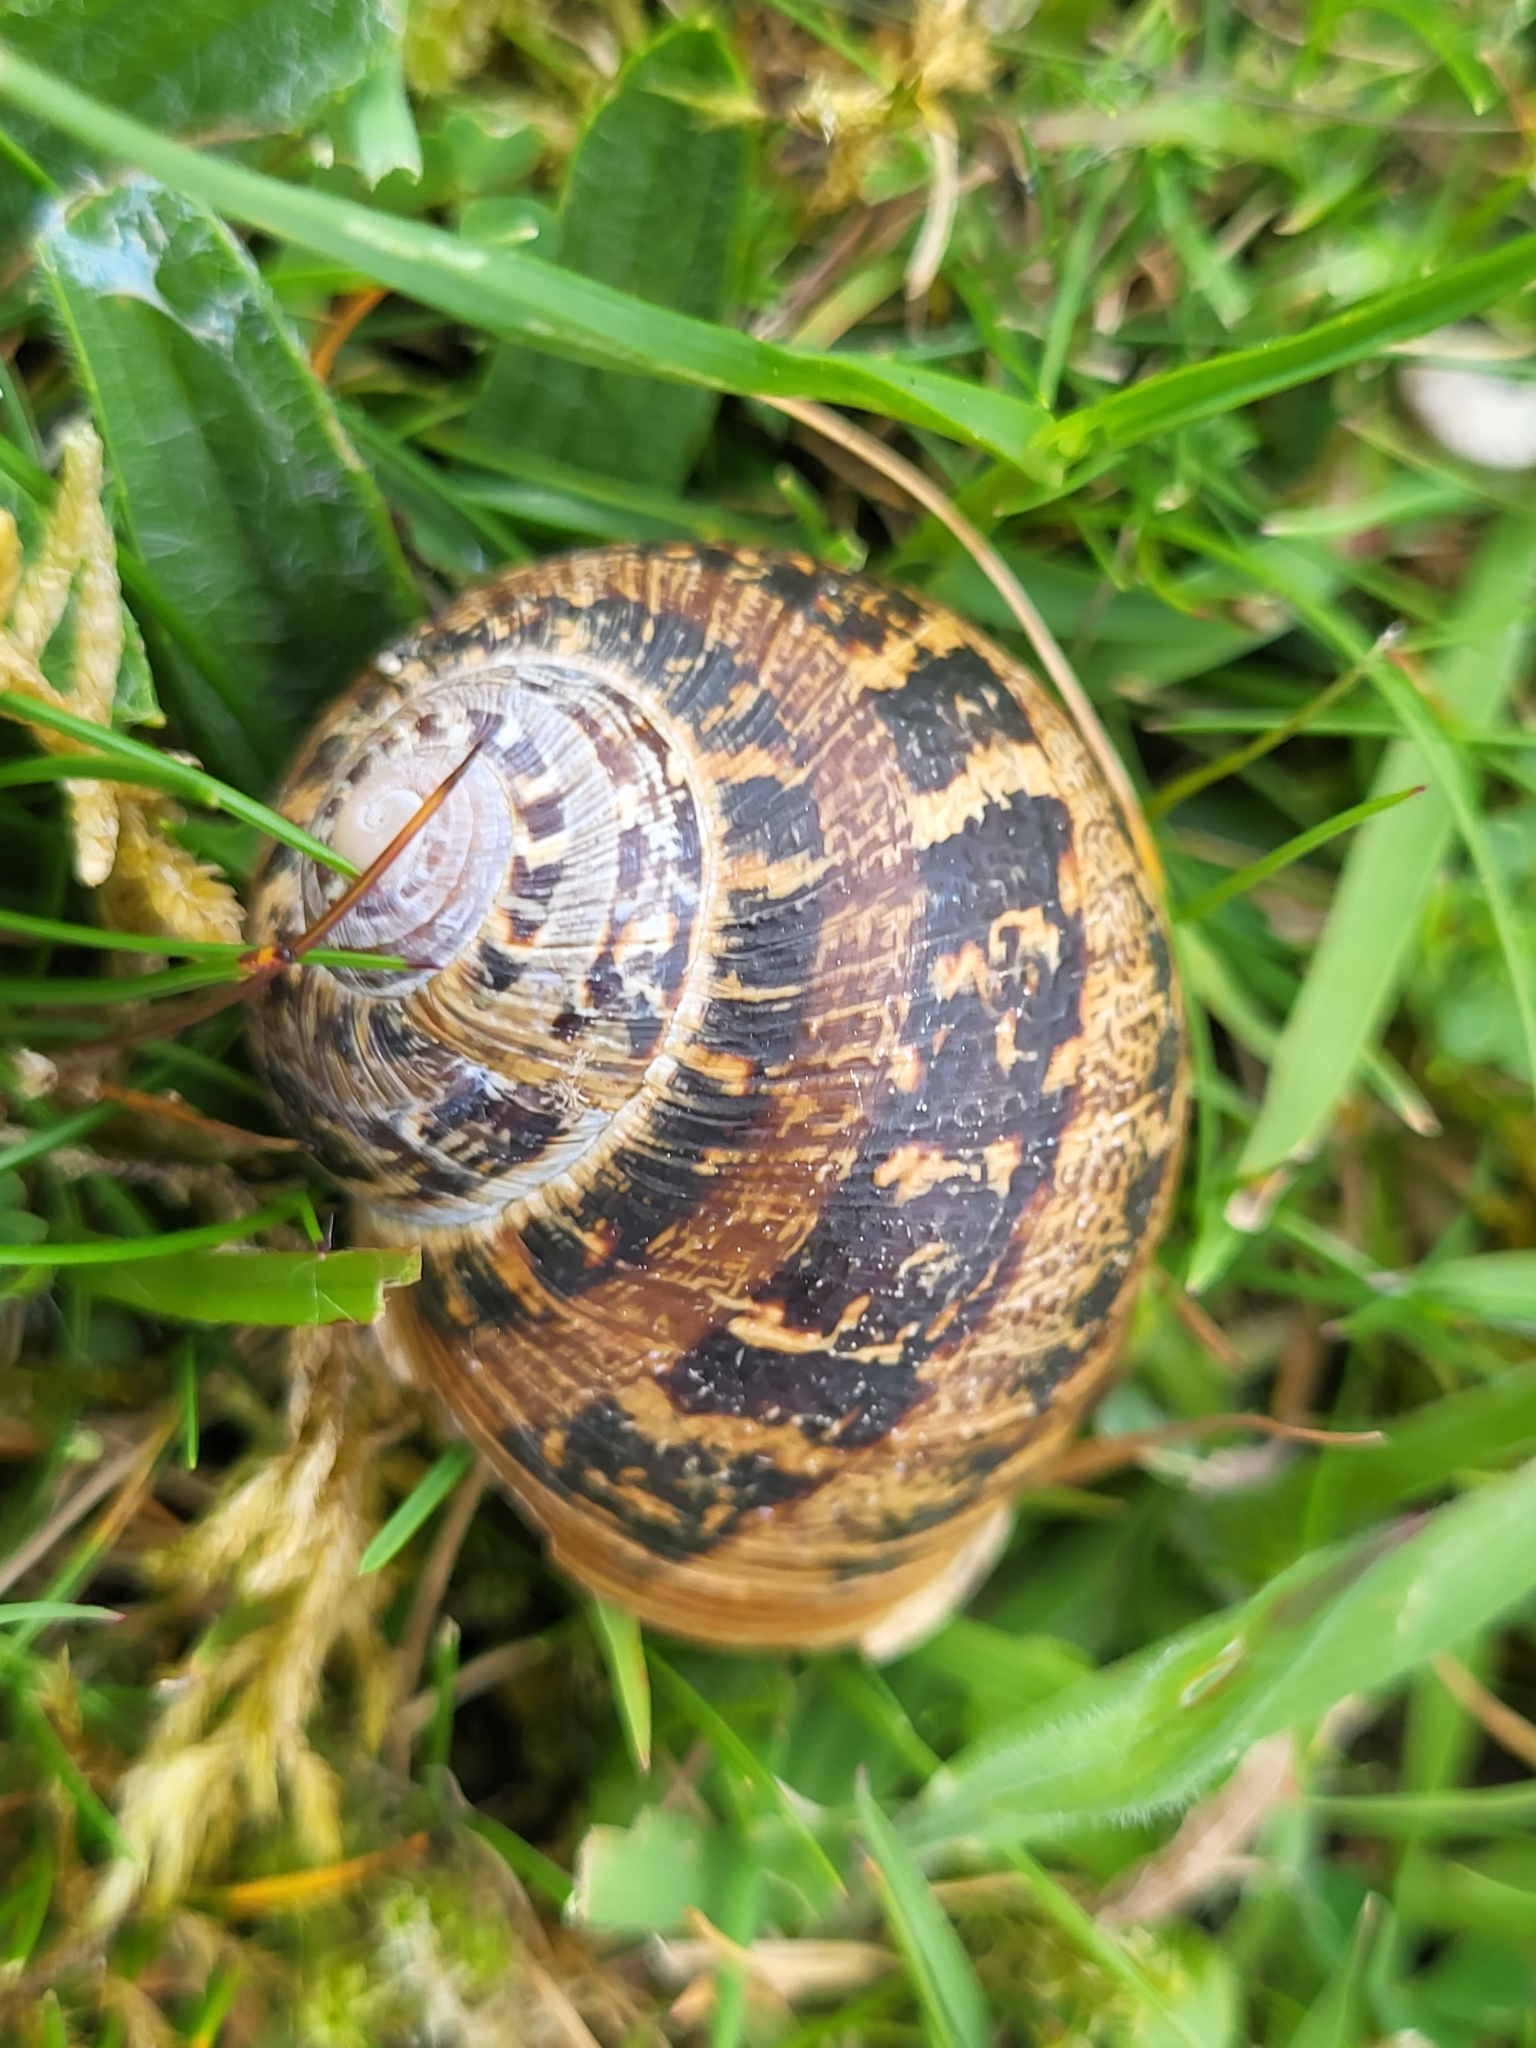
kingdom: Animalia
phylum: Mollusca
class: Gastropoda
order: Stylommatophora
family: Helicidae
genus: Cornu
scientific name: Cornu aspersum
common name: Brown garden snail
